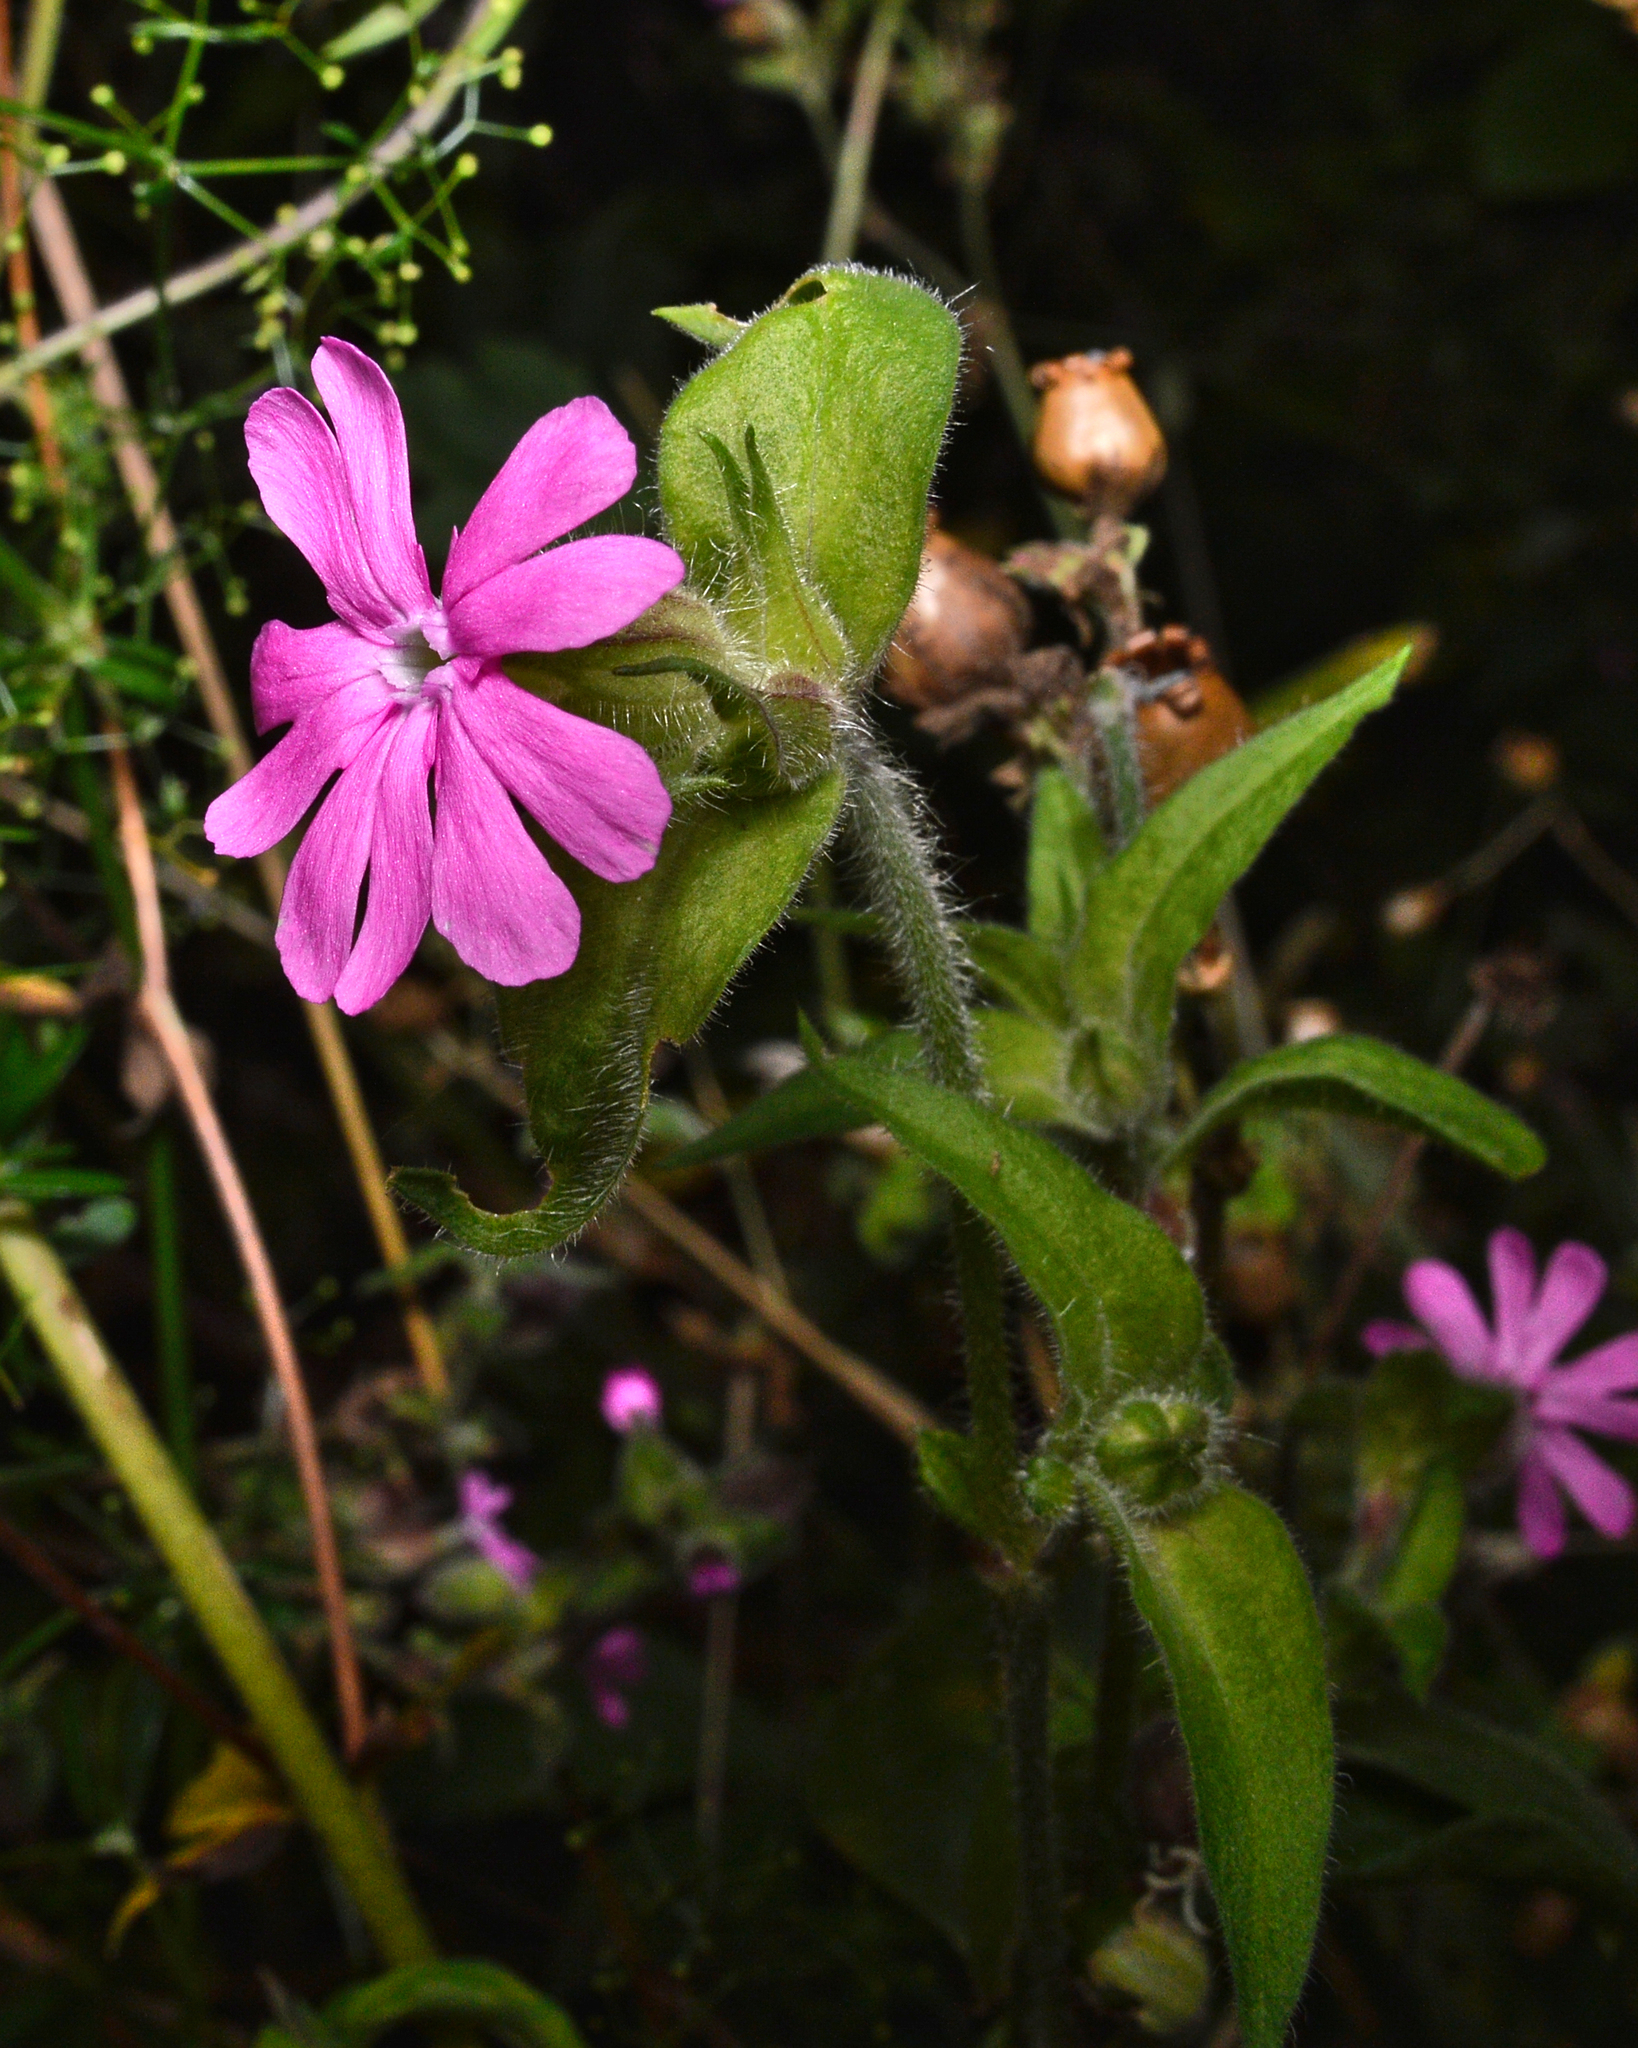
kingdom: Plantae
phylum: Tracheophyta
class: Magnoliopsida
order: Caryophyllales
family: Caryophyllaceae
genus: Silene
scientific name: Silene dioica
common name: Red campion
